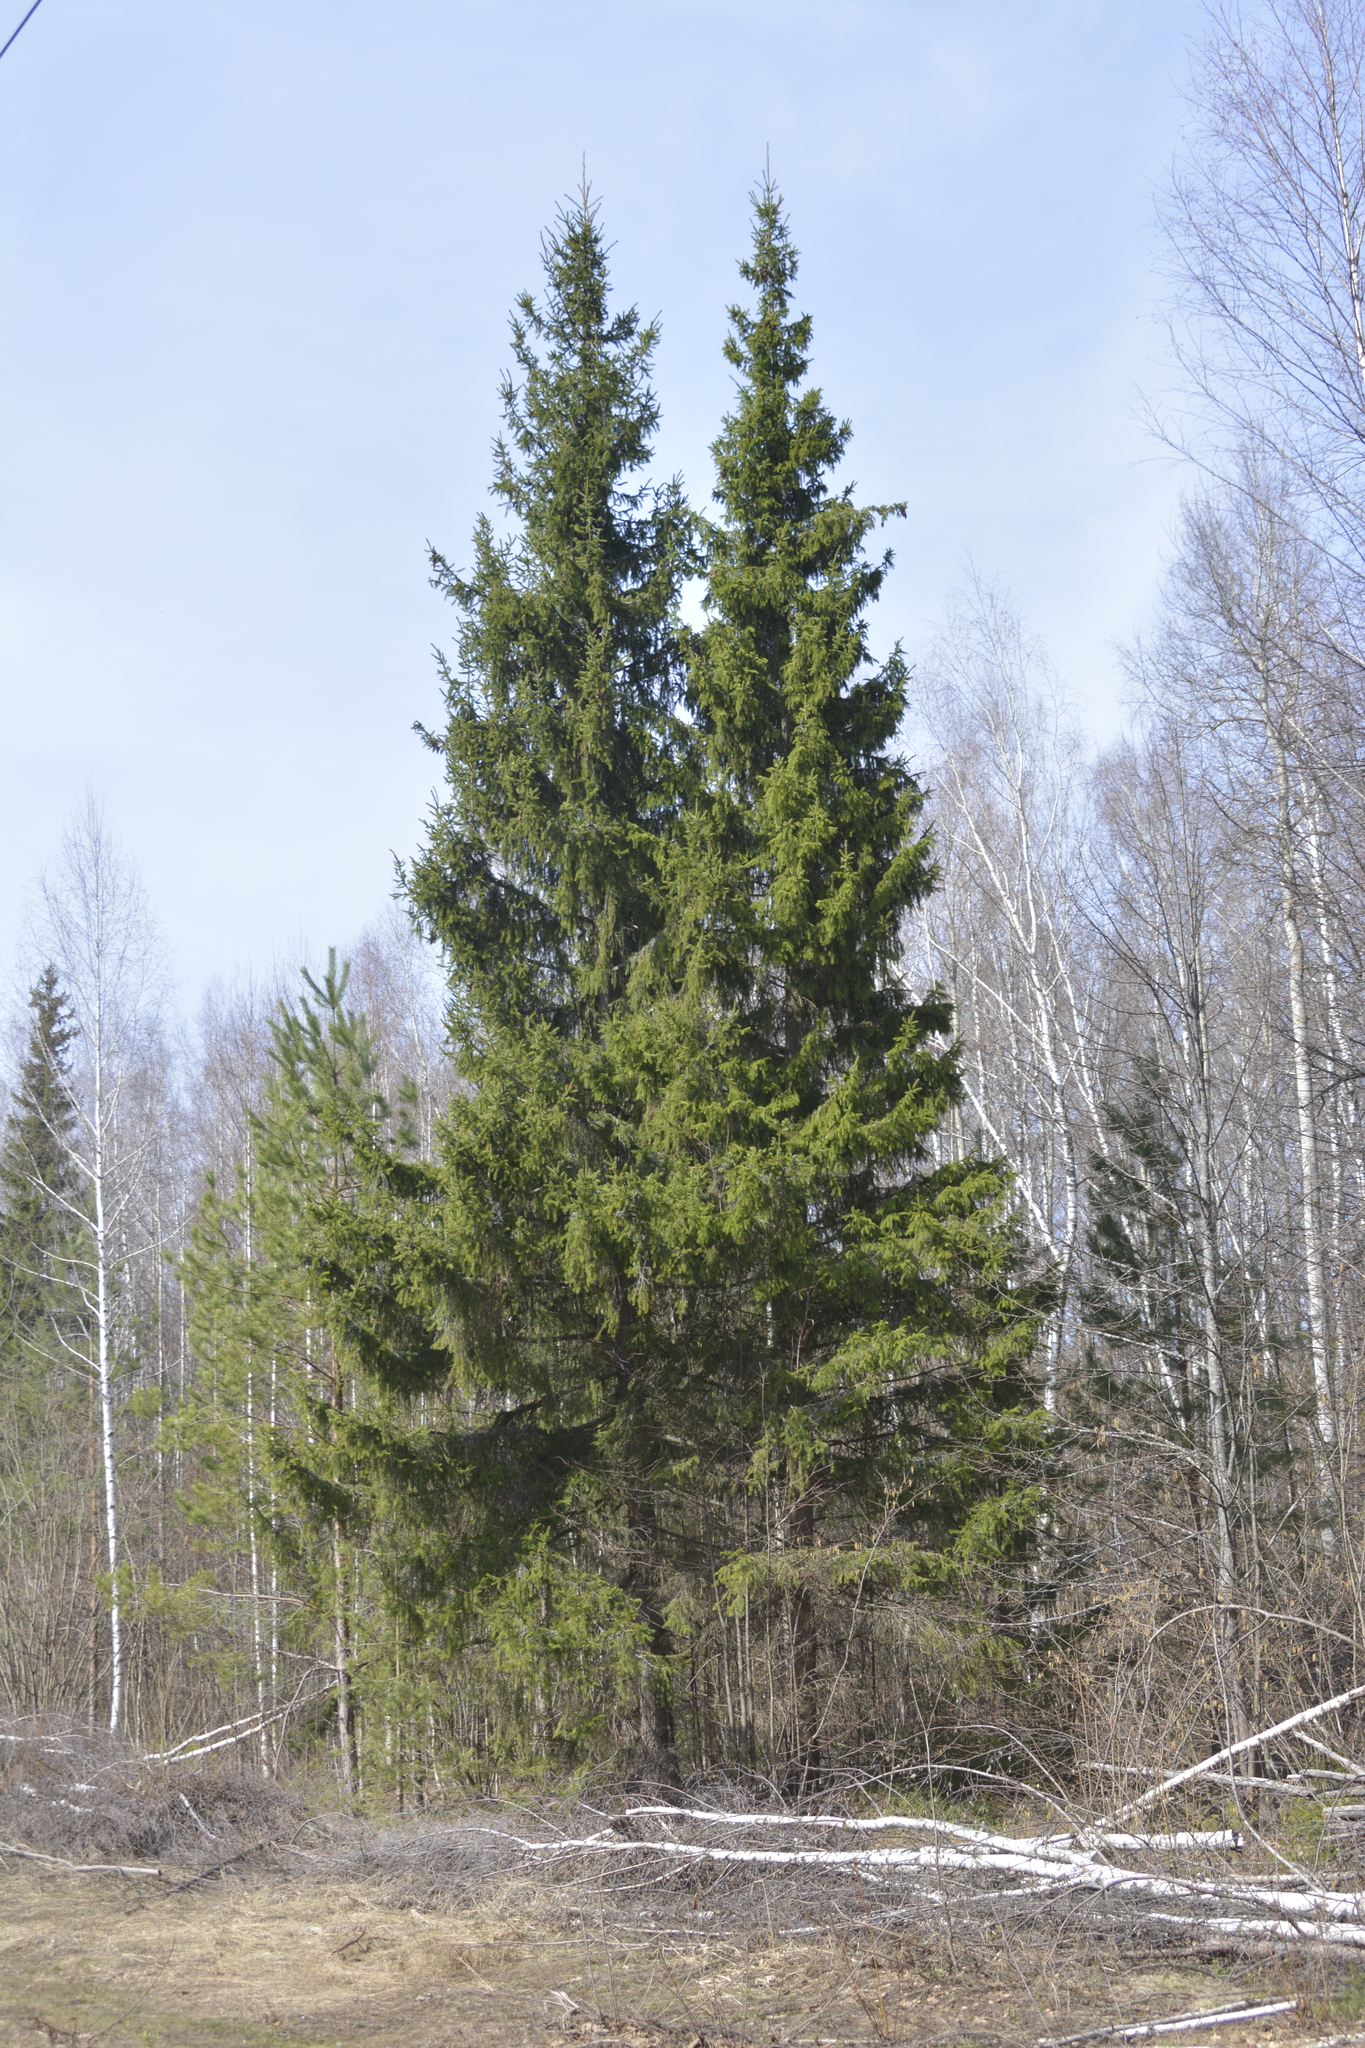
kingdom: Plantae
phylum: Tracheophyta
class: Pinopsida
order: Pinales
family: Pinaceae
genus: Picea
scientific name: Picea abies
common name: Norway spruce
